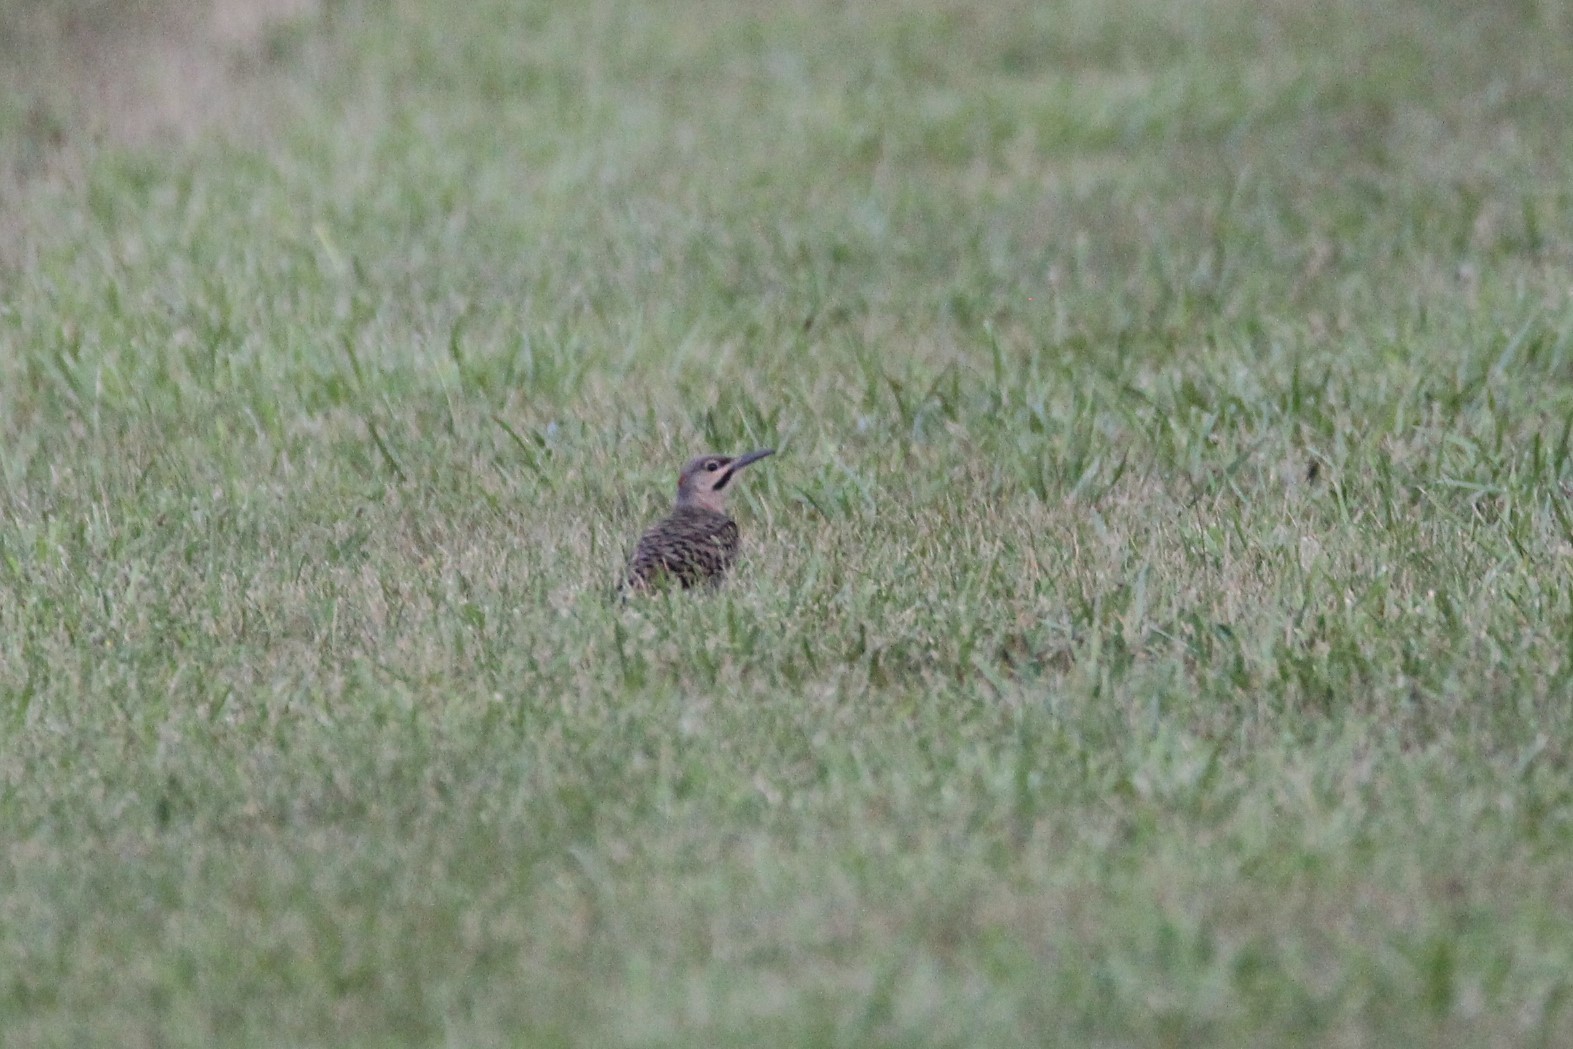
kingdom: Animalia
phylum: Chordata
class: Aves
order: Piciformes
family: Picidae
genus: Colaptes
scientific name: Colaptes auratus
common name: Northern flicker
